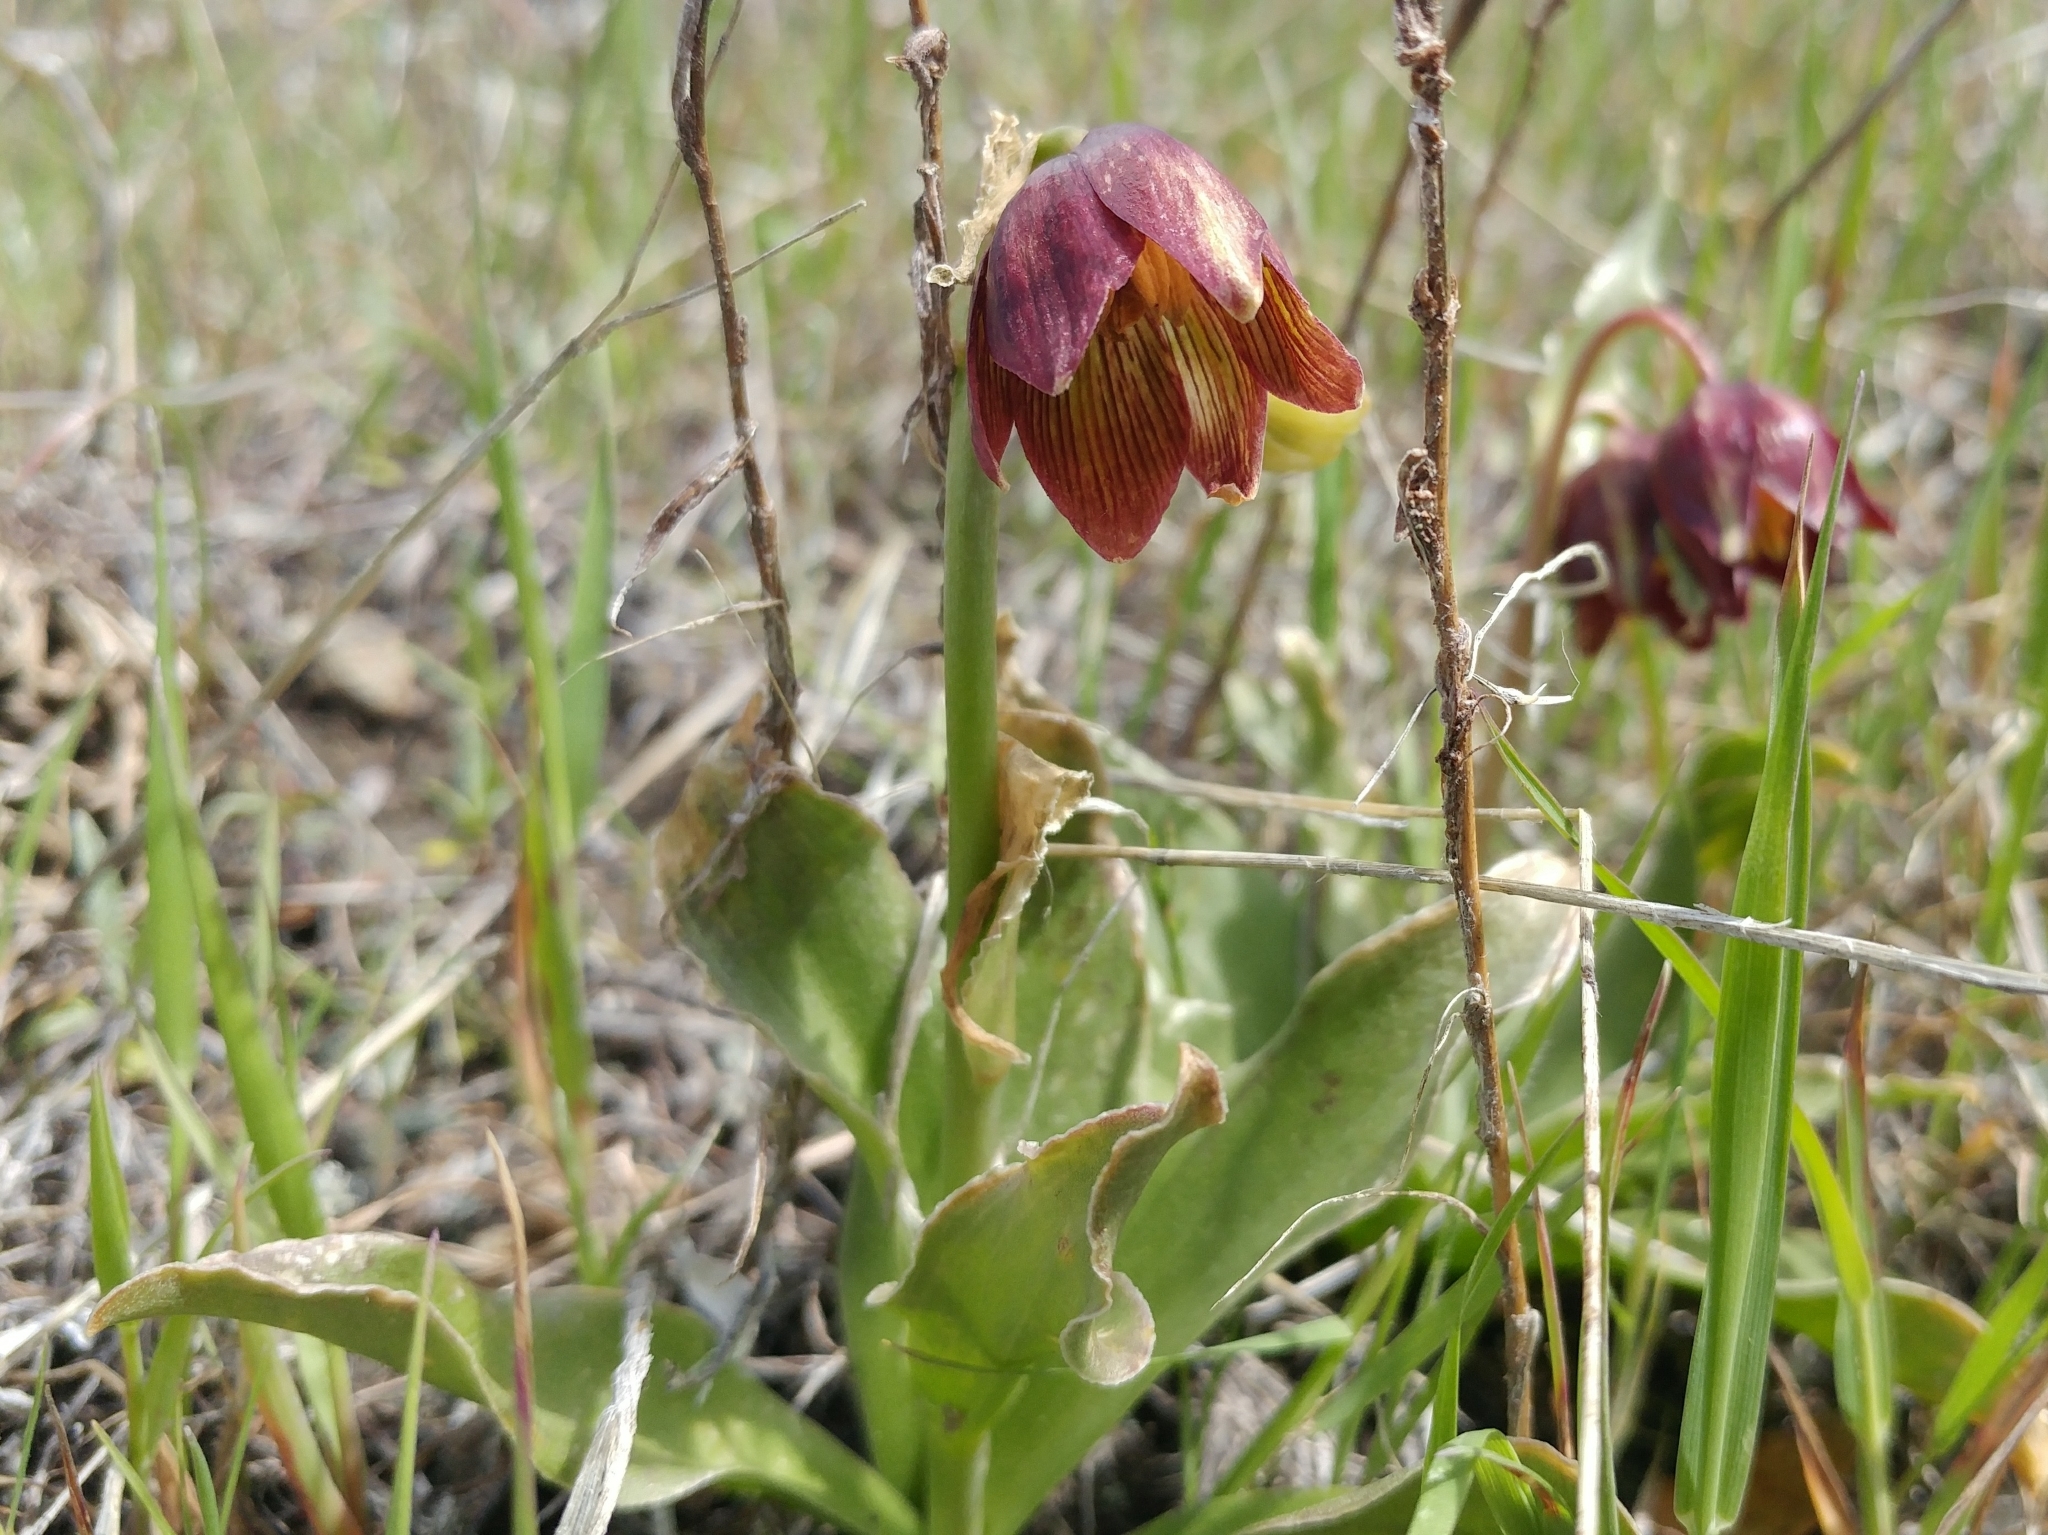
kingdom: Plantae
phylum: Tracheophyta
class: Liliopsida
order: Liliales
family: Liliaceae
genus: Fritillaria
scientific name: Fritillaria biflora
